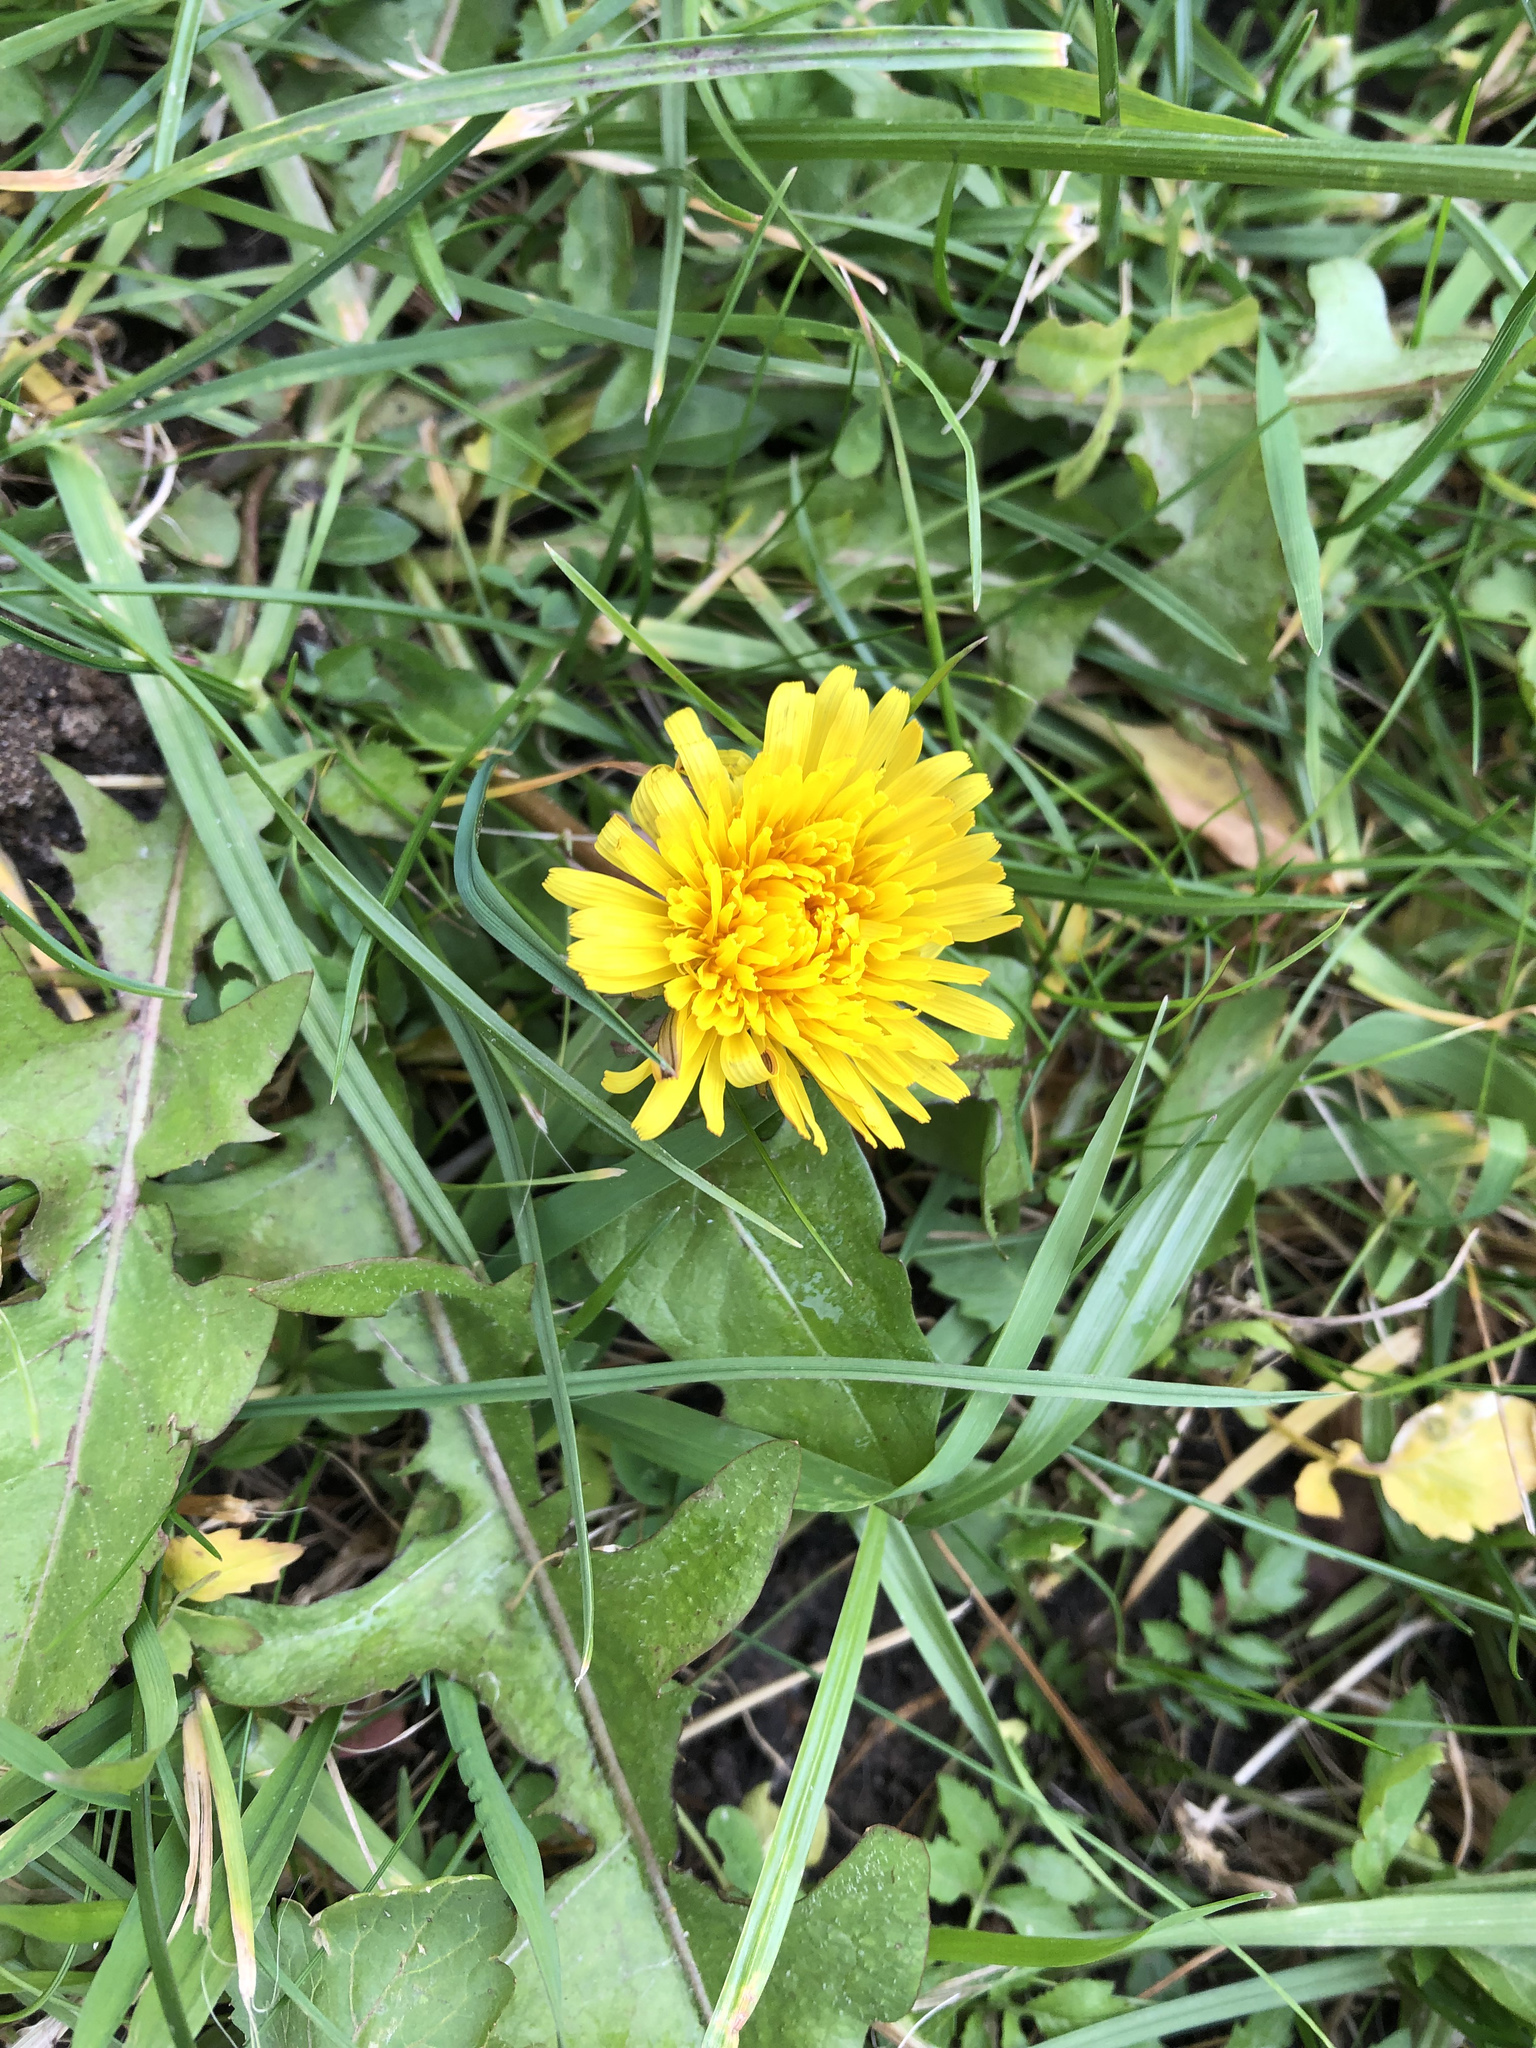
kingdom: Plantae
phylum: Tracheophyta
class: Magnoliopsida
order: Asterales
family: Asteraceae
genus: Taraxacum
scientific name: Taraxacum officinale
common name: Common dandelion
